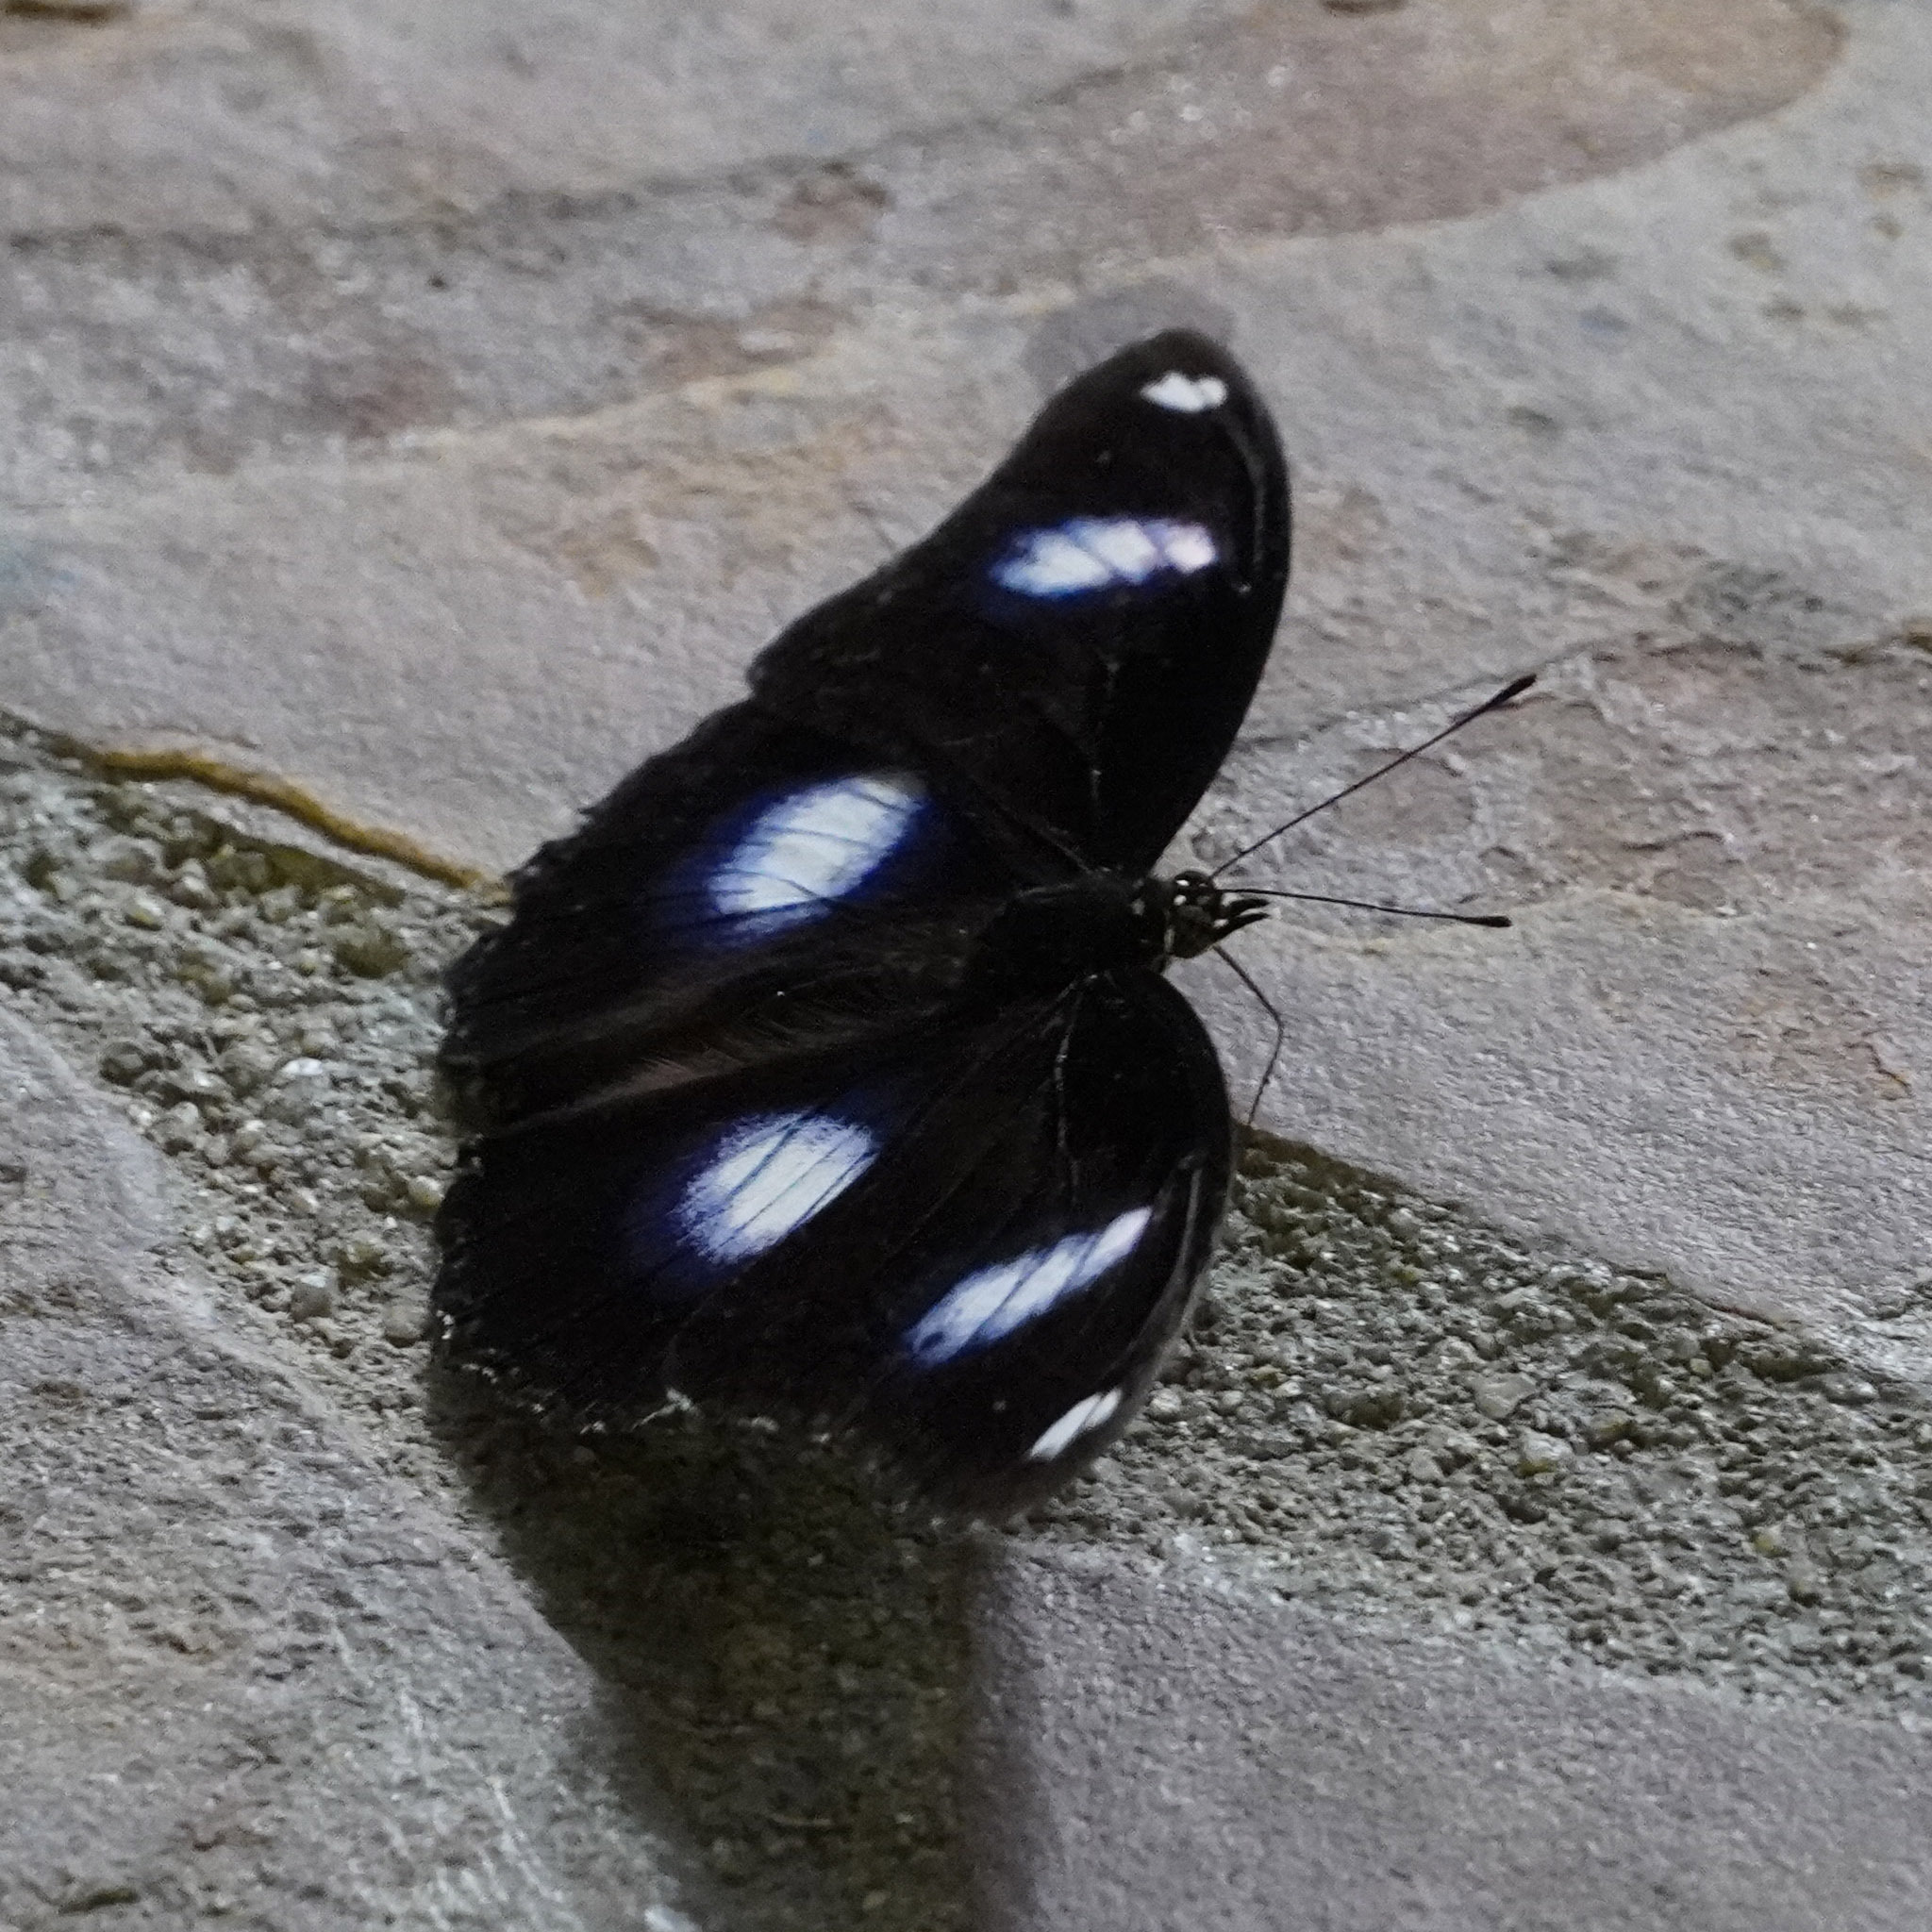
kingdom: Animalia
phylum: Arthropoda
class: Insecta
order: Lepidoptera
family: Nymphalidae
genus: Hypolimnas
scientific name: Hypolimnas bolina
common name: Great eggfly
